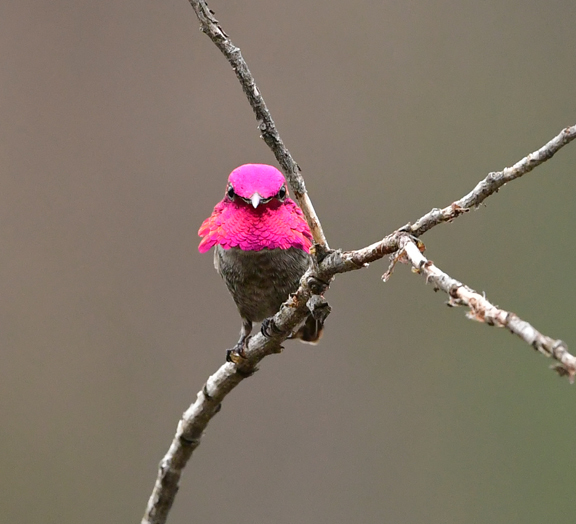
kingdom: Animalia
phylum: Chordata
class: Aves
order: Apodiformes
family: Trochilidae
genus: Calypte
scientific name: Calypte anna
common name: Anna's hummingbird
